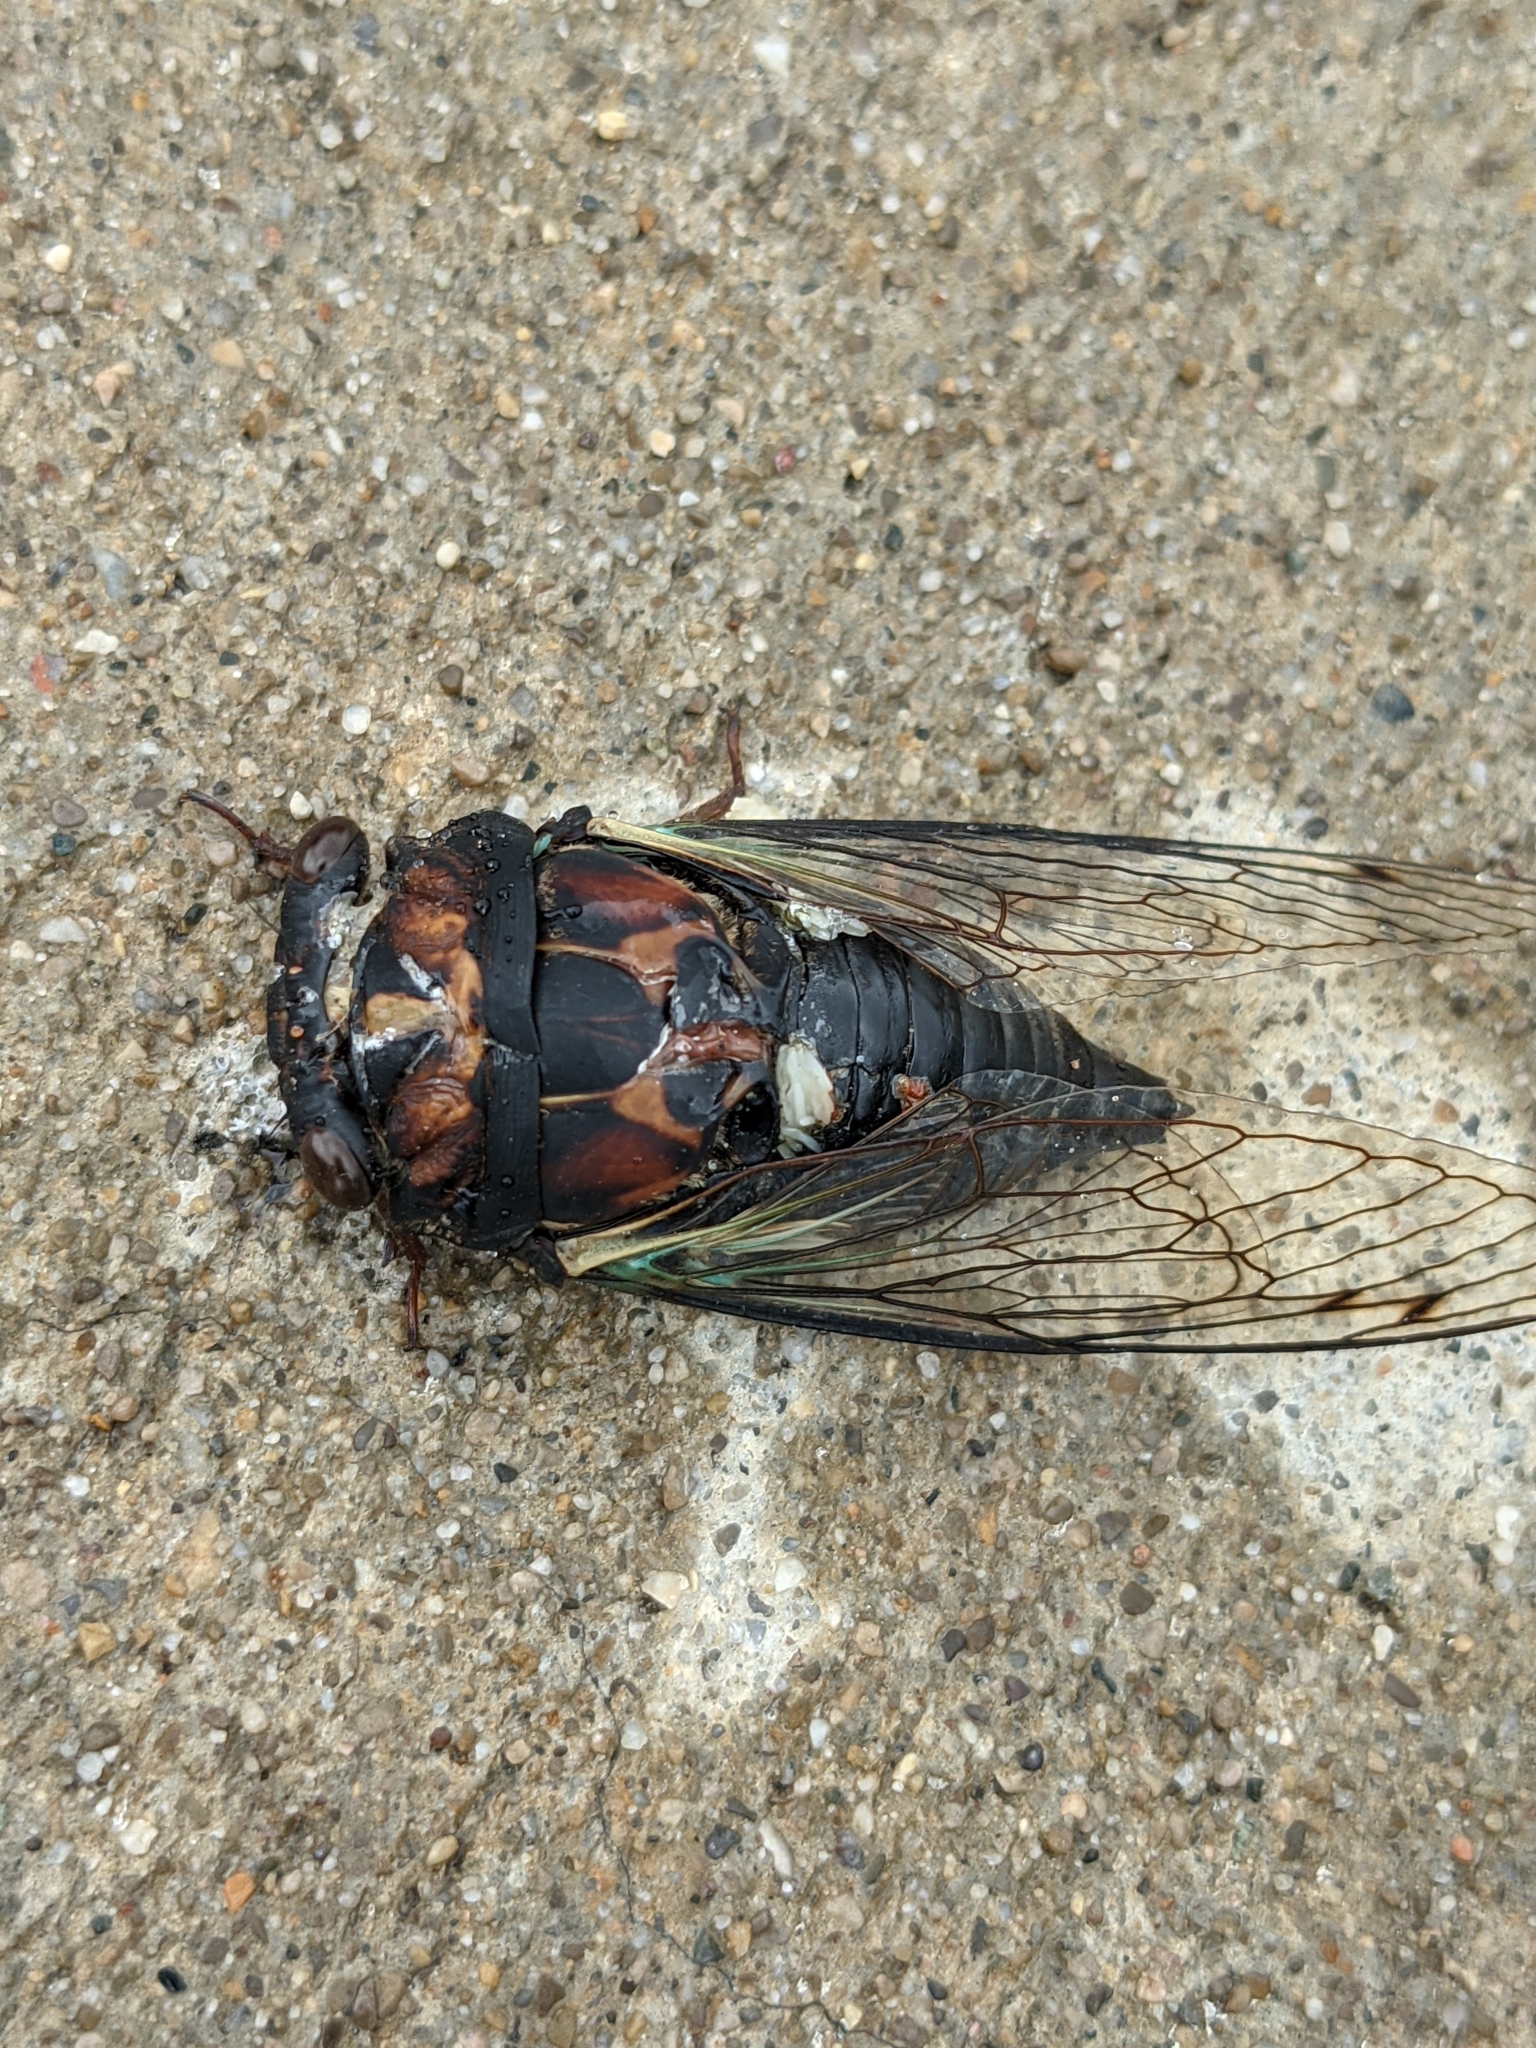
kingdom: Animalia
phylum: Arthropoda
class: Insecta
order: Hemiptera
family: Cicadidae
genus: Neotibicen
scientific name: Neotibicen lyricen
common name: Lyric cicada
